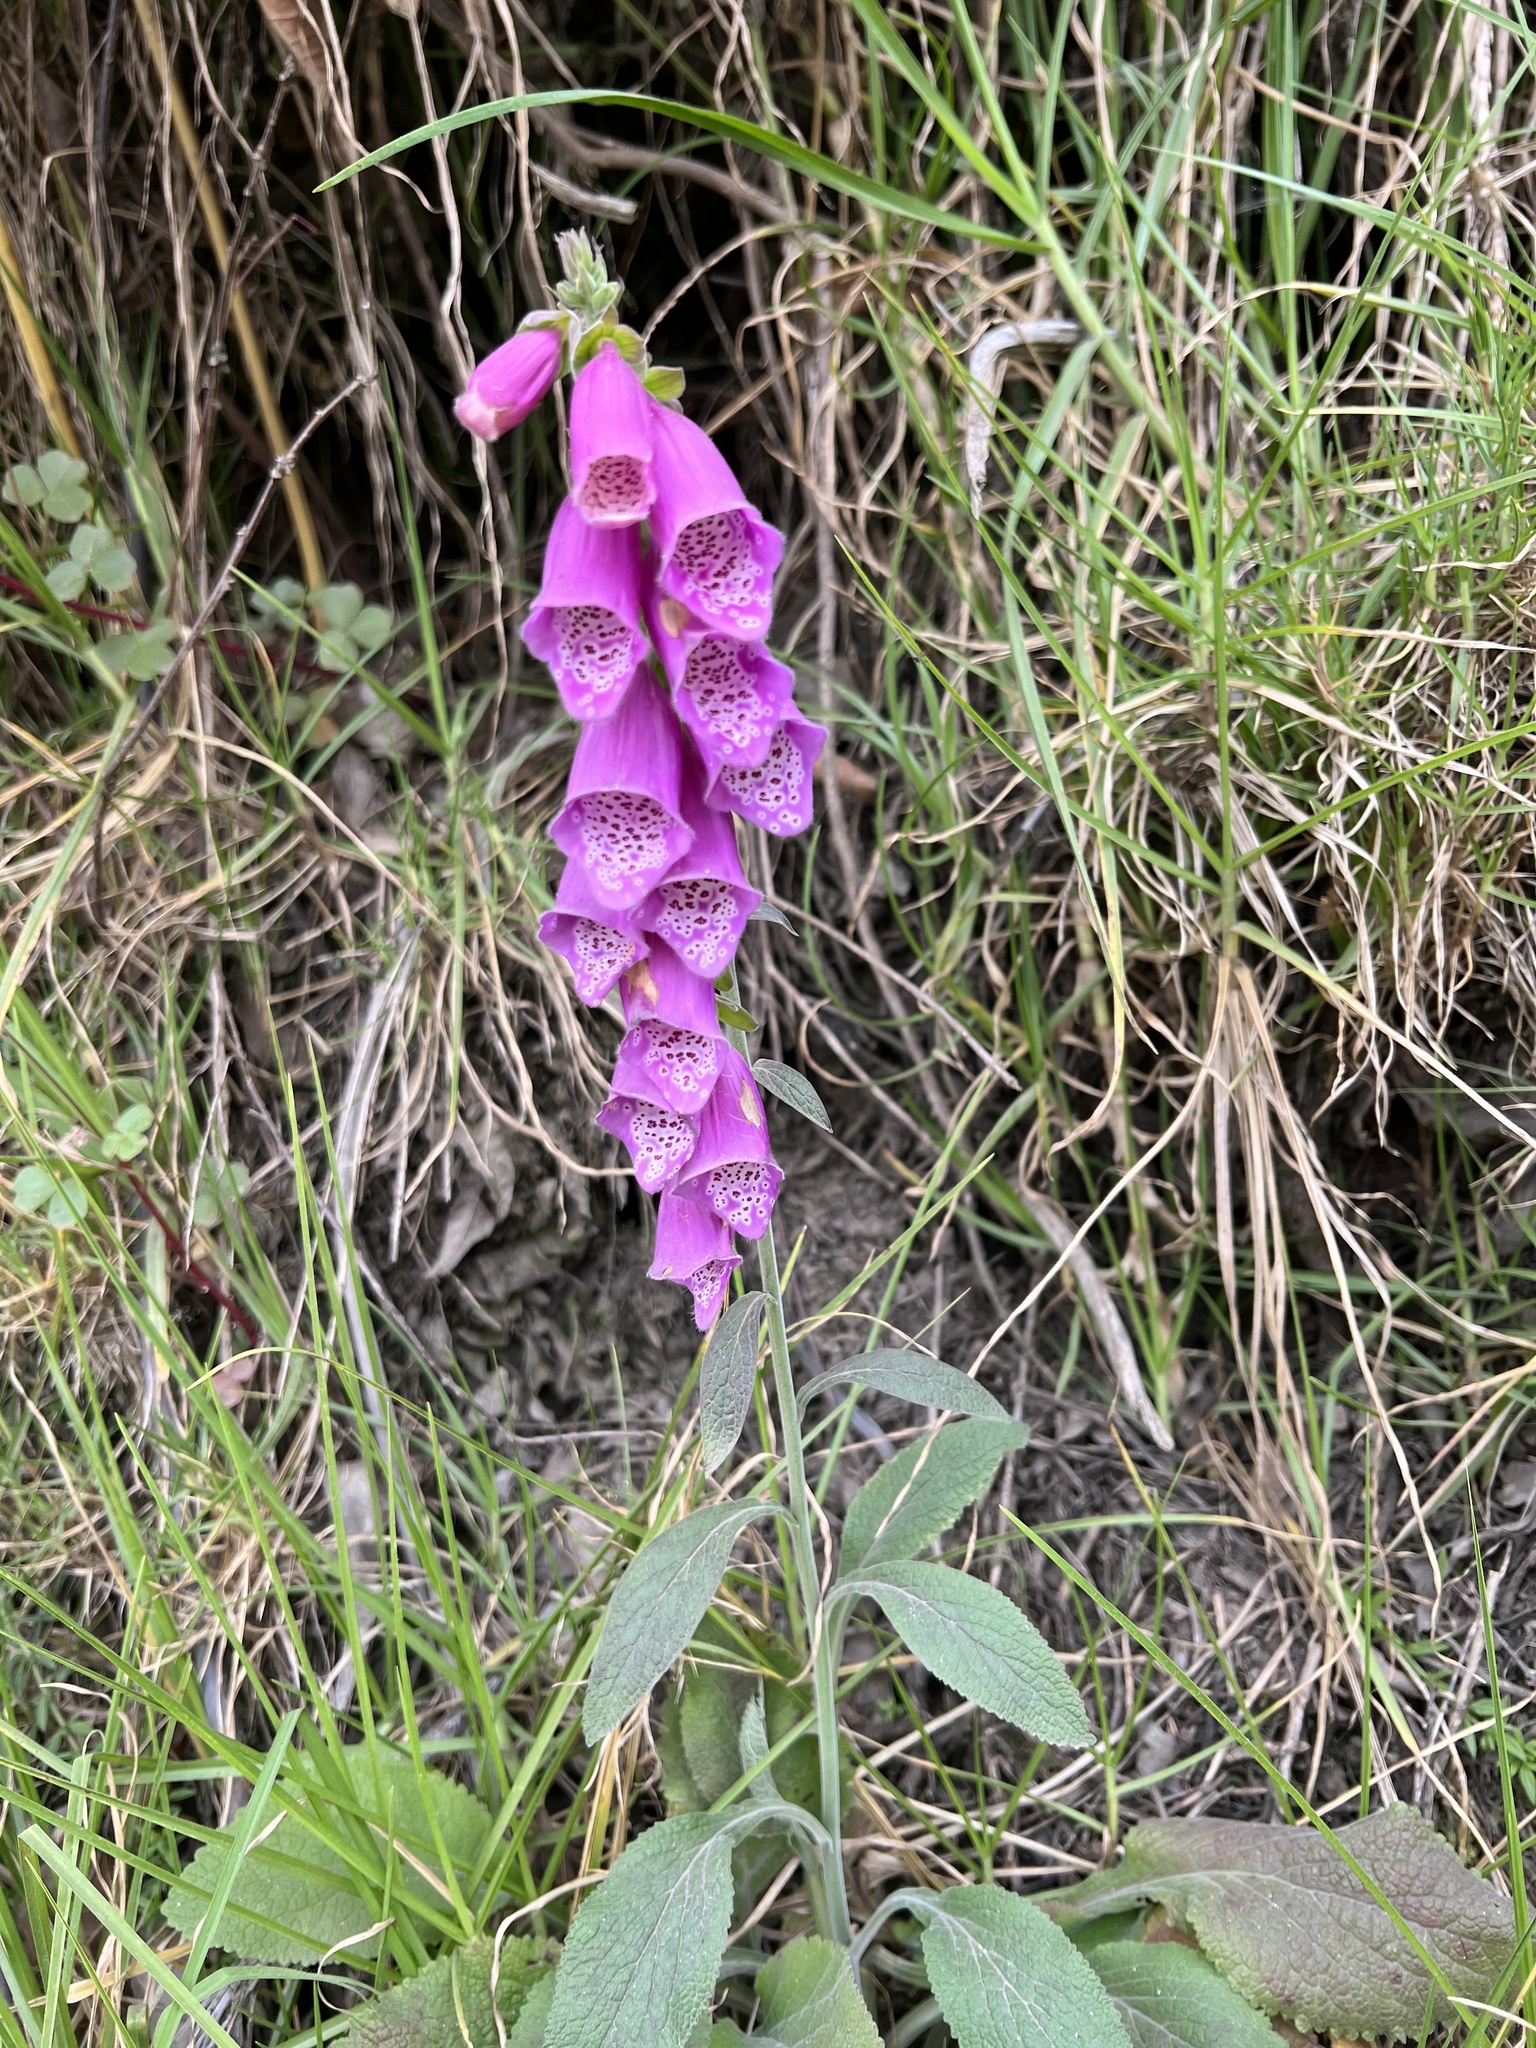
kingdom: Plantae
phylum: Tracheophyta
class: Magnoliopsida
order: Lamiales
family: Plantaginaceae
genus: Digitalis
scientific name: Digitalis purpurea
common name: Foxglove
